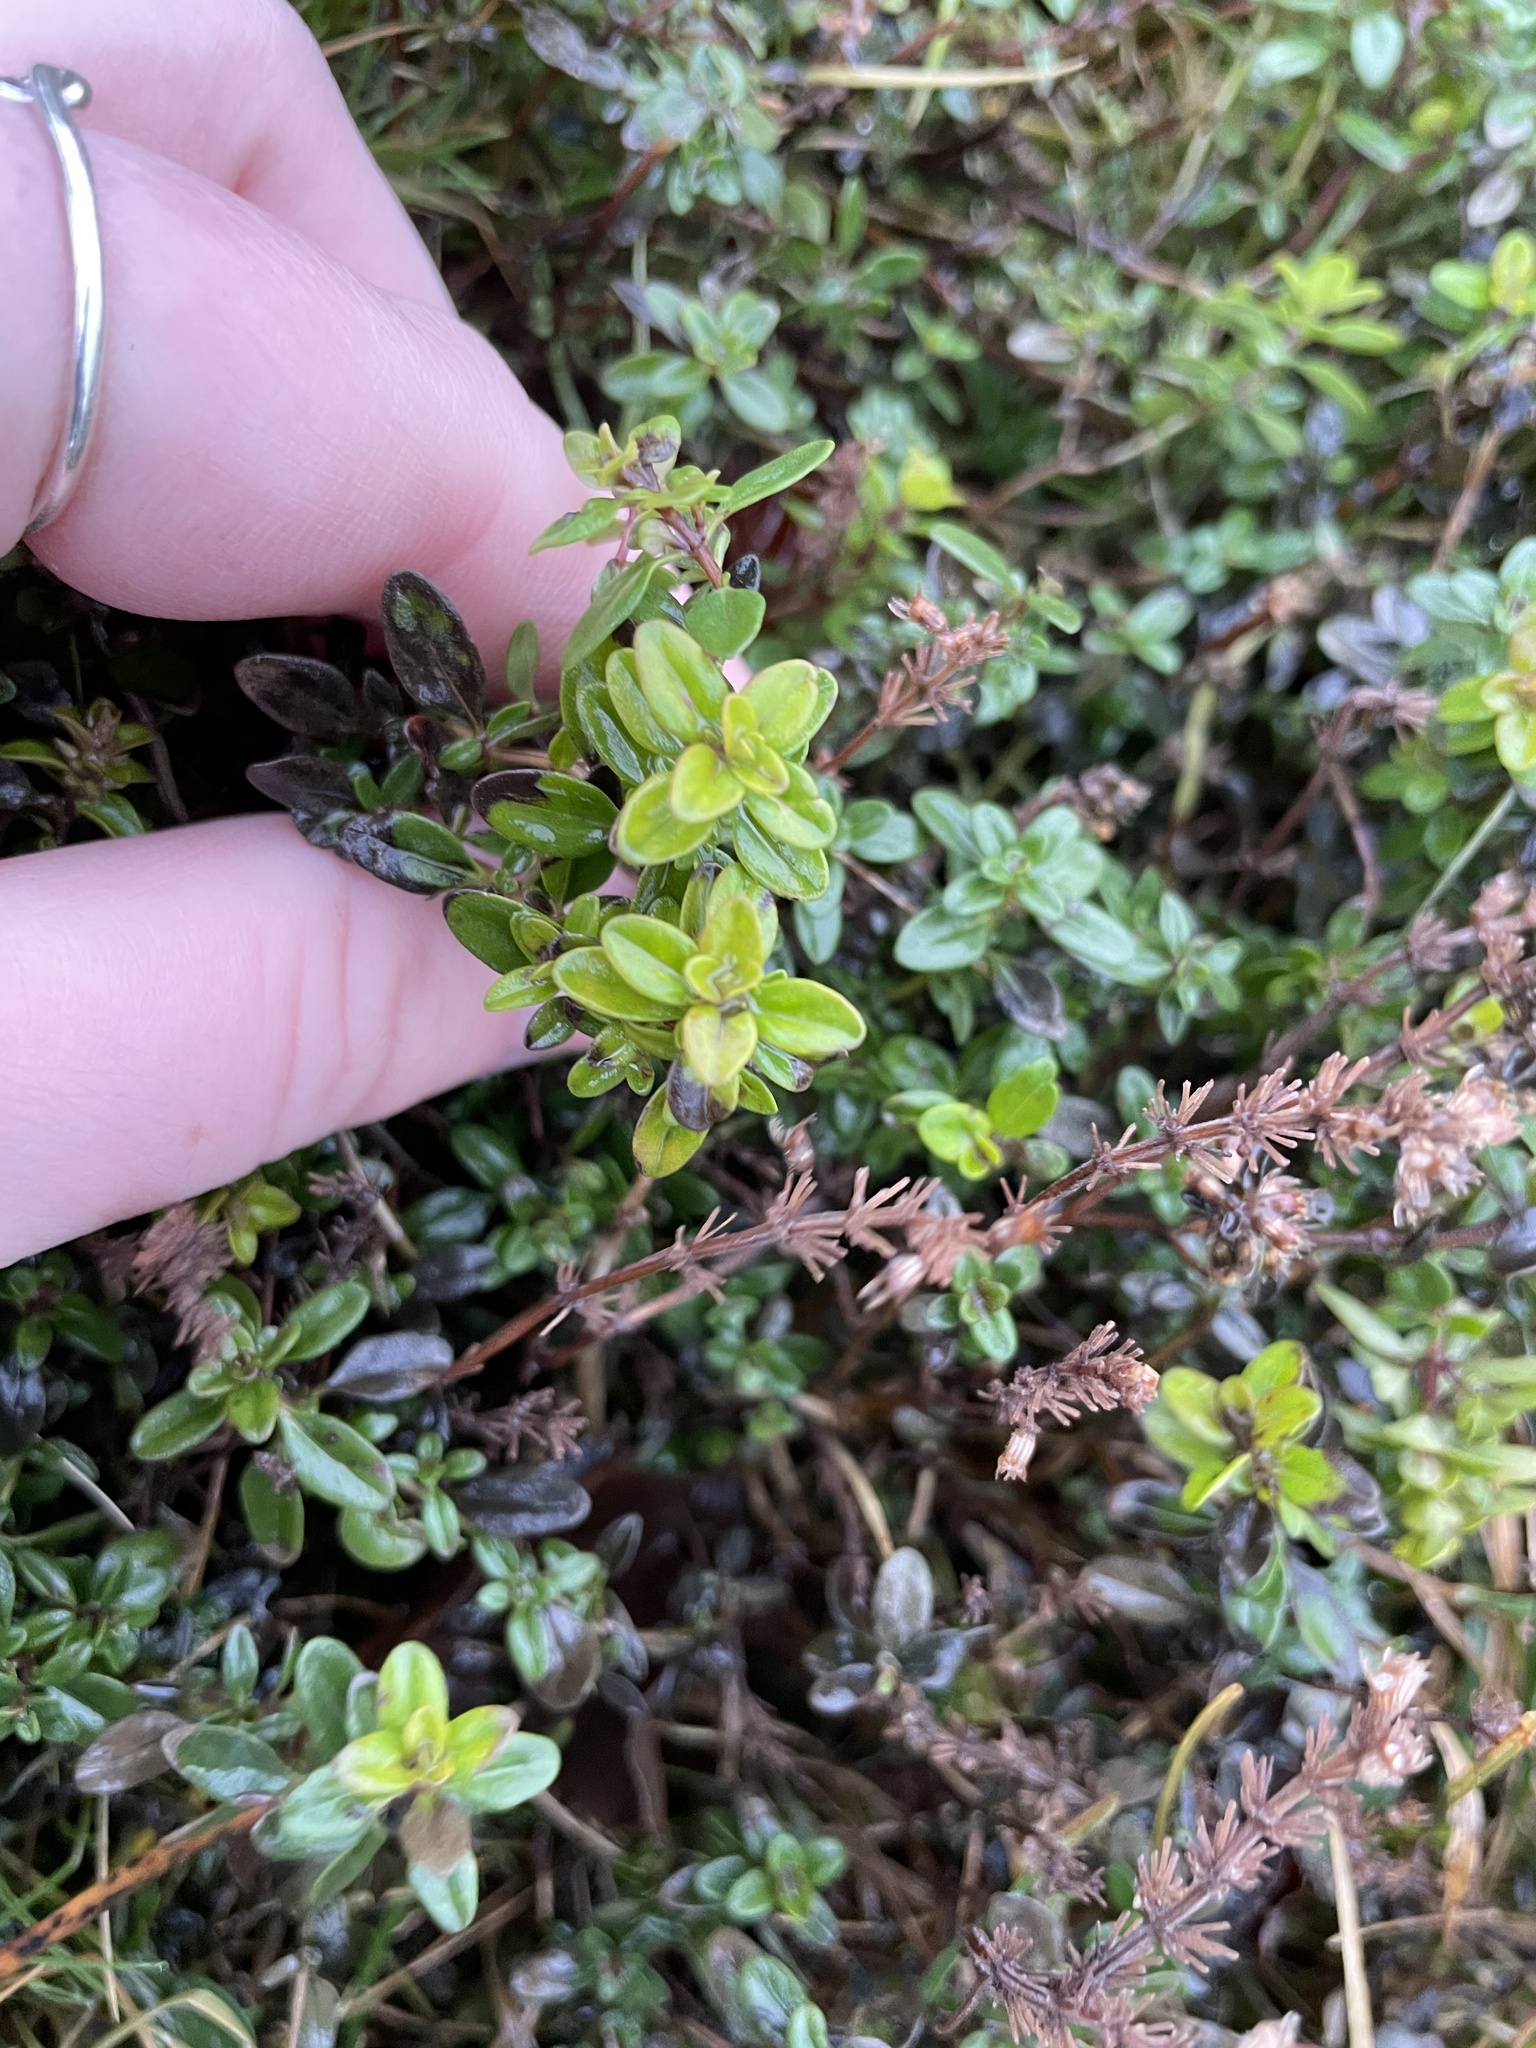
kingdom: Plantae
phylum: Tracheophyta
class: Magnoliopsida
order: Lamiales
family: Lamiaceae
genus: Thymus
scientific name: Thymus pulegioides
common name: Large thyme
